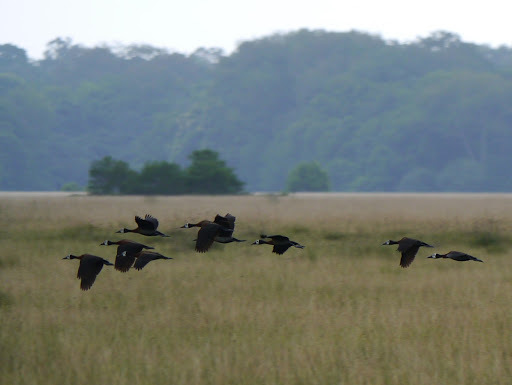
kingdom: Animalia
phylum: Chordata
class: Aves
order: Anseriformes
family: Anatidae
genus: Dendrocygna
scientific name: Dendrocygna viduata
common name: White-faced whistling duck
